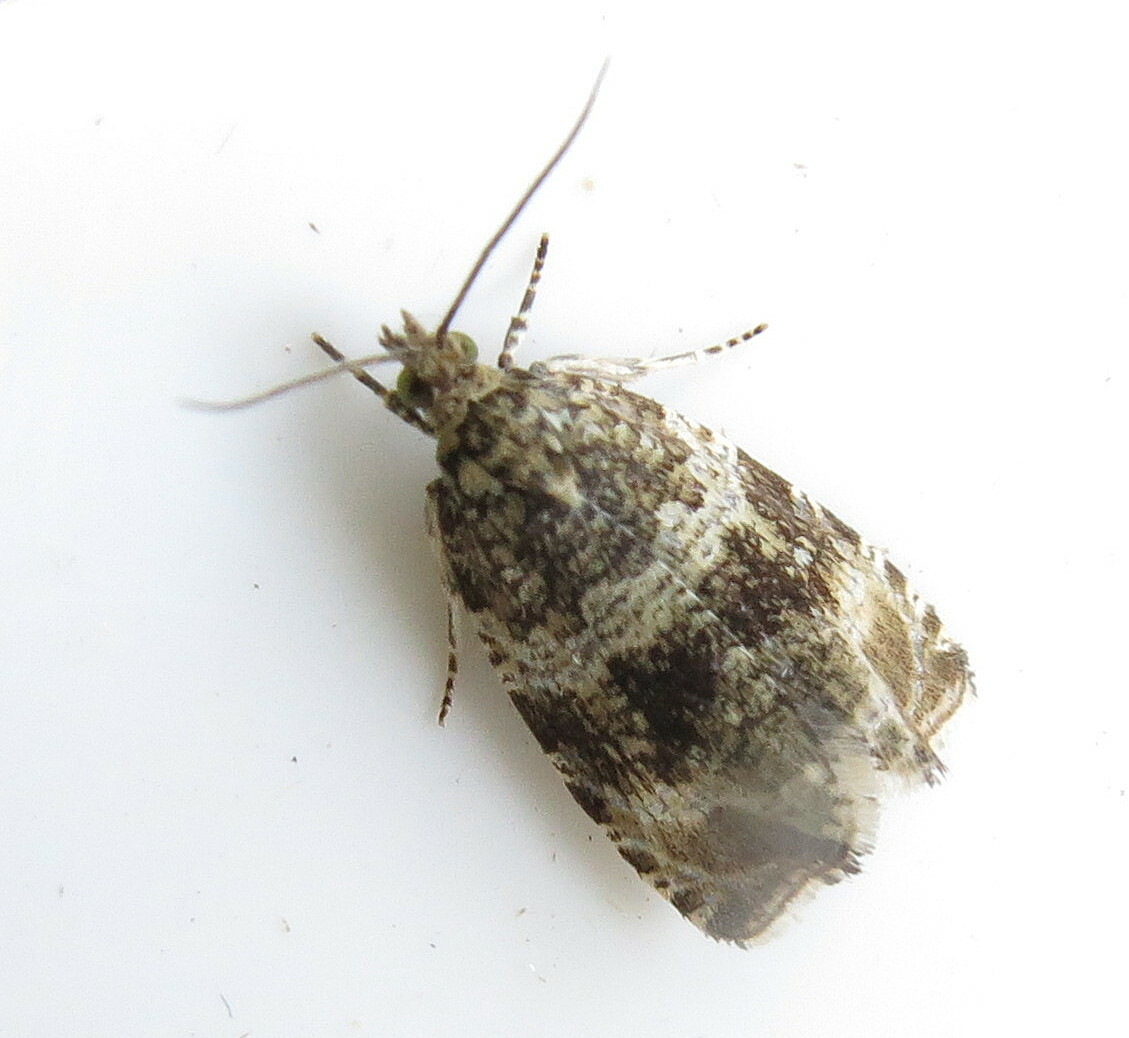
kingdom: Animalia
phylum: Arthropoda
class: Insecta
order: Lepidoptera
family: Tortricidae
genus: Syricoris
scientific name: Syricoris lacunana
